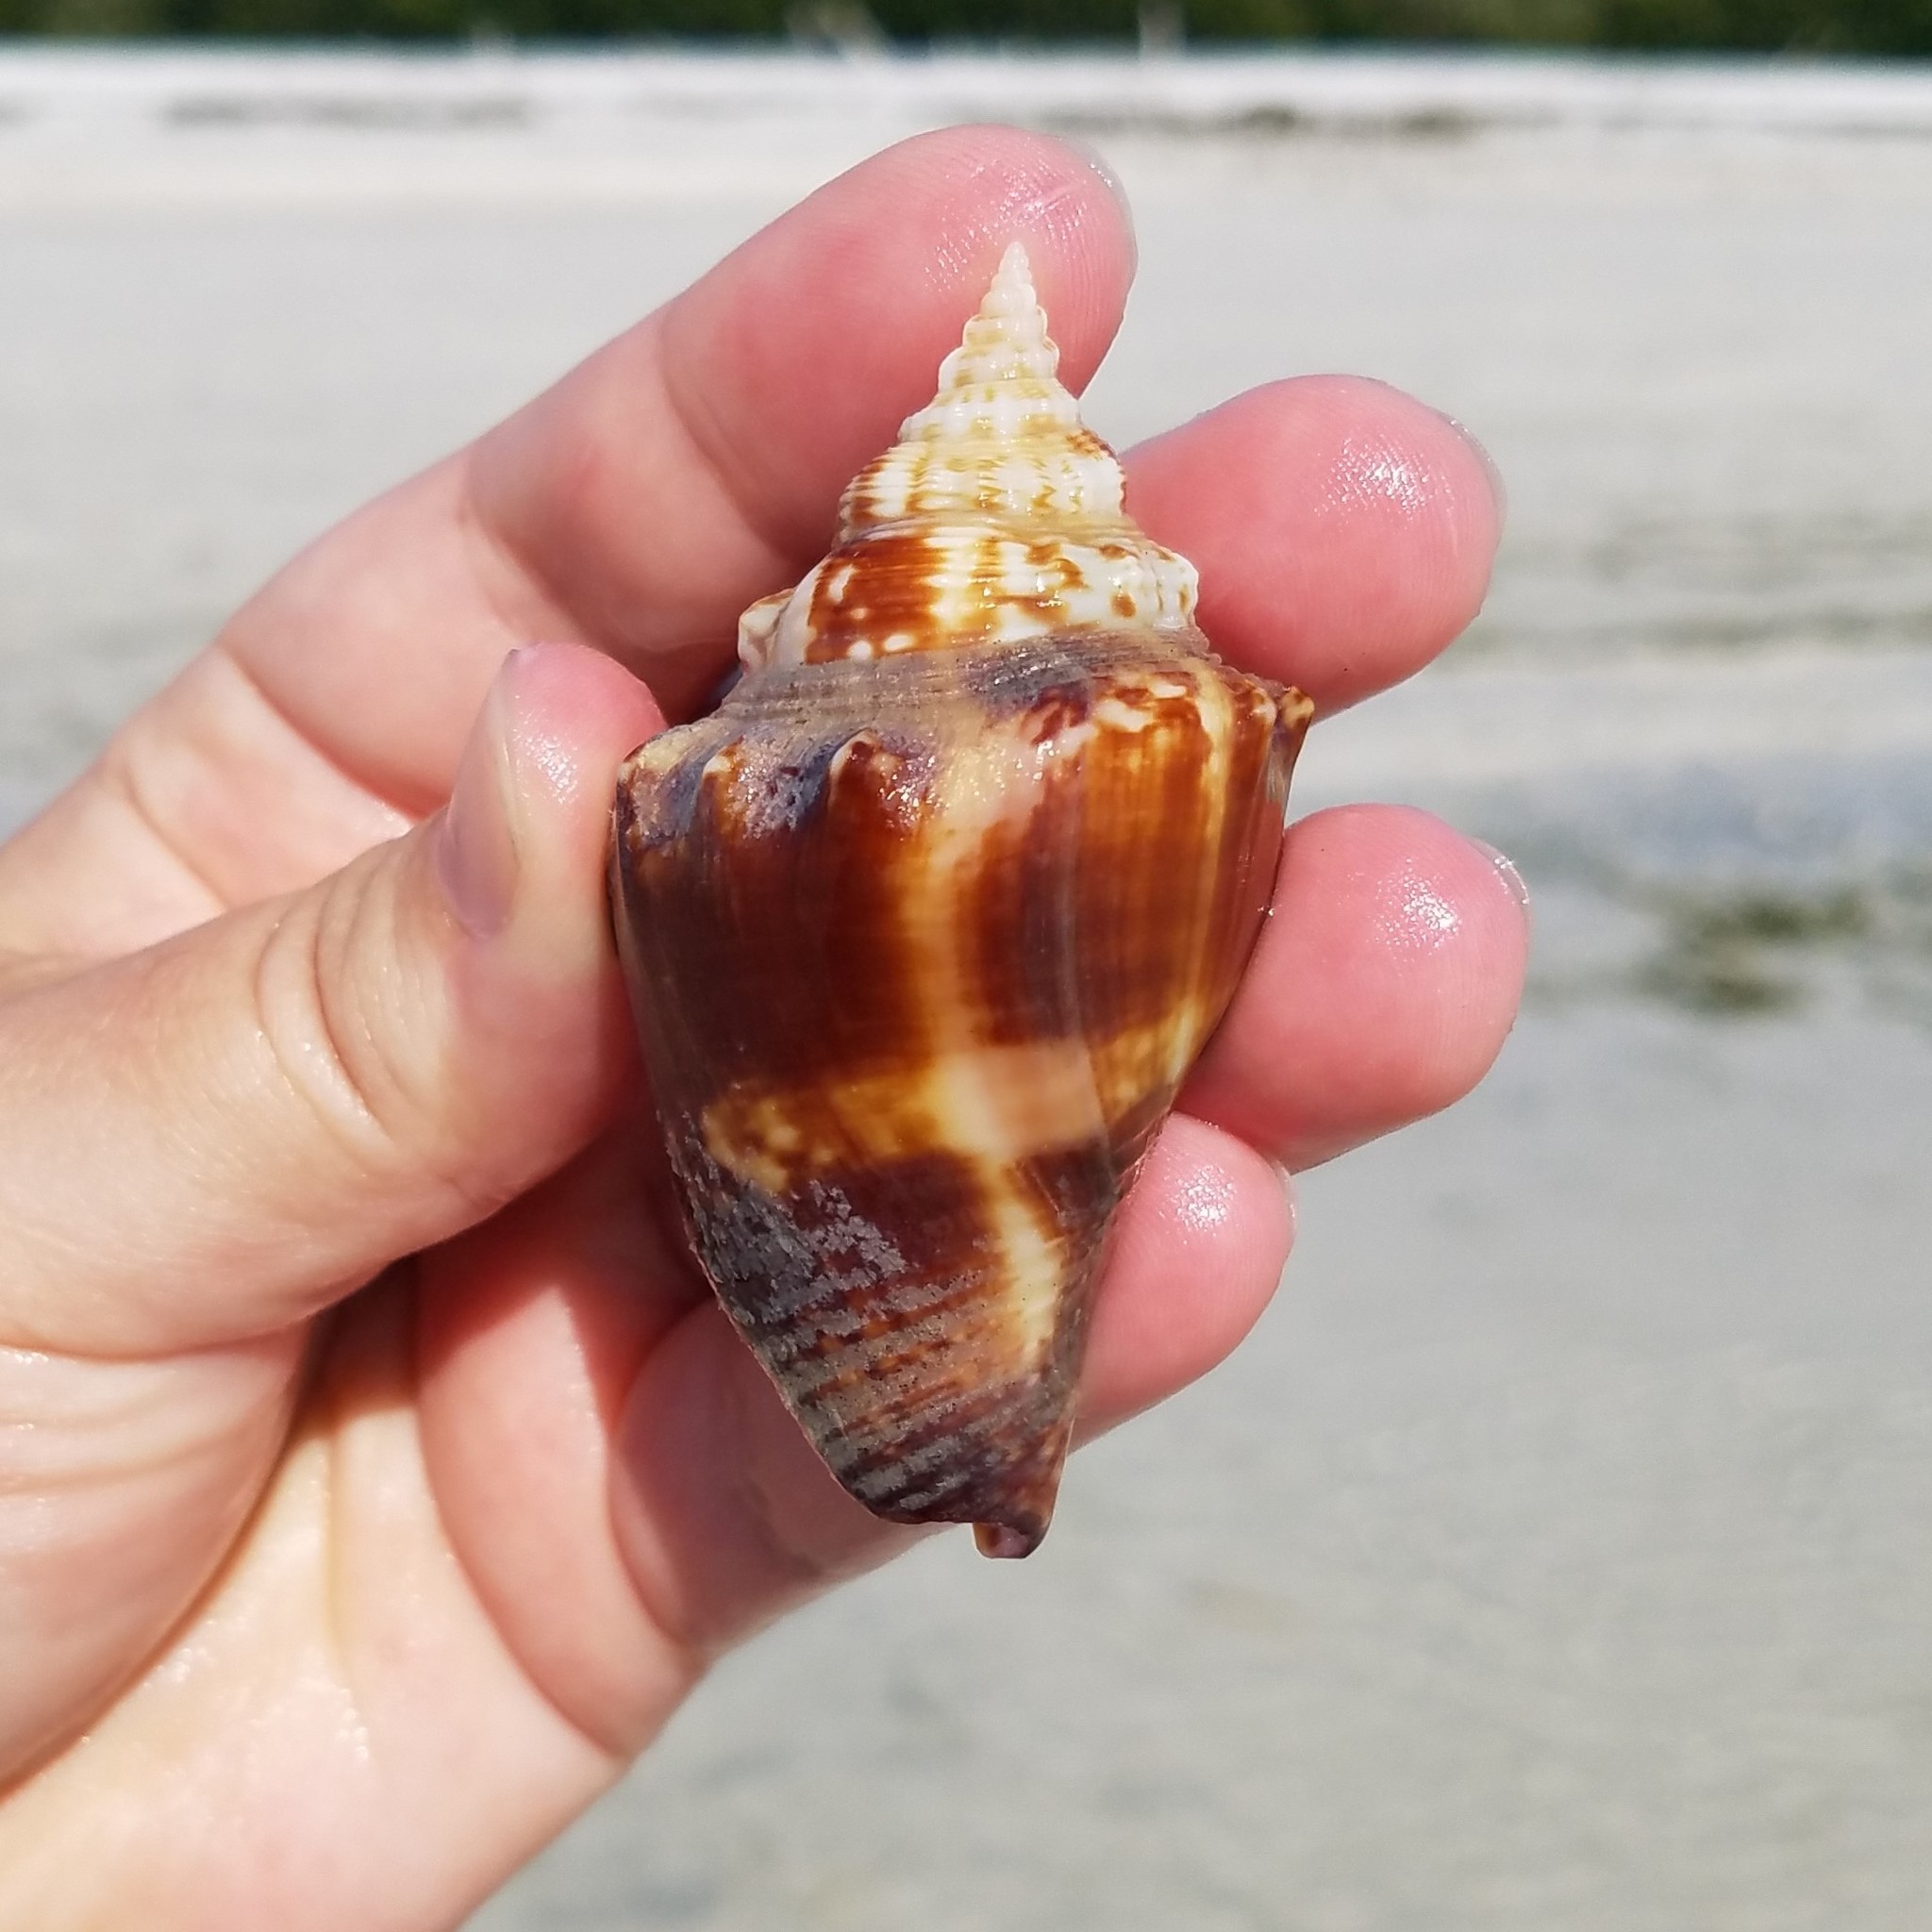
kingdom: Animalia
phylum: Mollusca
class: Gastropoda
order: Littorinimorpha
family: Strombidae
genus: Strombus
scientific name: Strombus alatus
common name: Florida fighting conch
